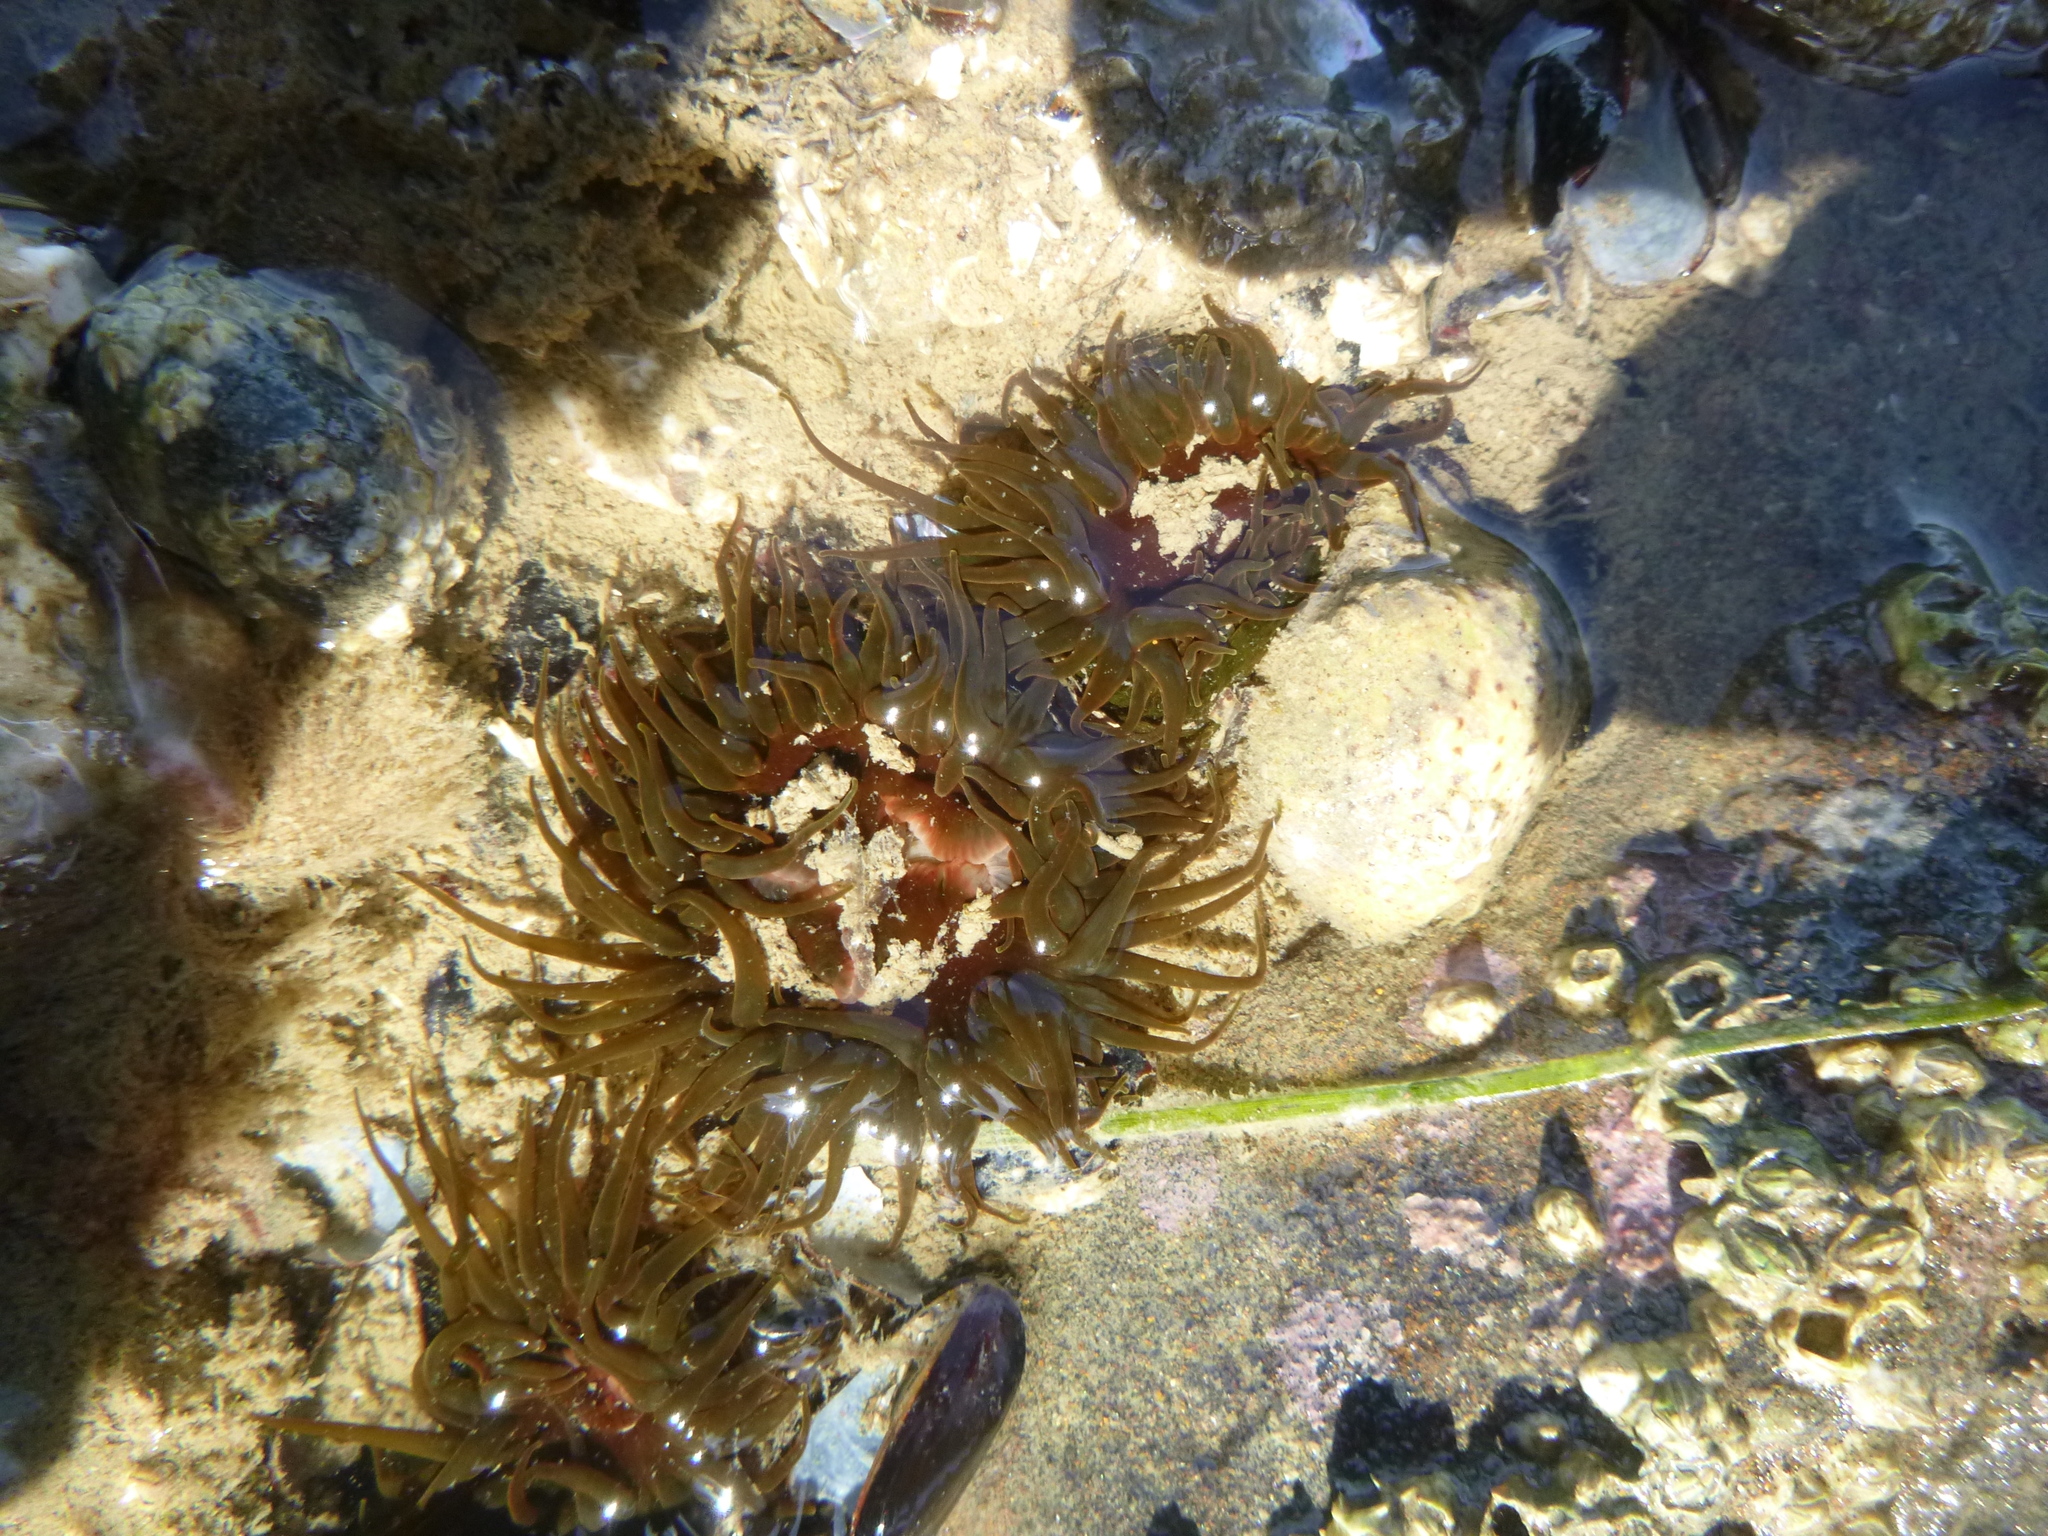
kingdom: Animalia
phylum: Cnidaria
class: Anthozoa
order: Actiniaria
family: Actiniidae
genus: Isactinia
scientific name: Isactinia olivacea
